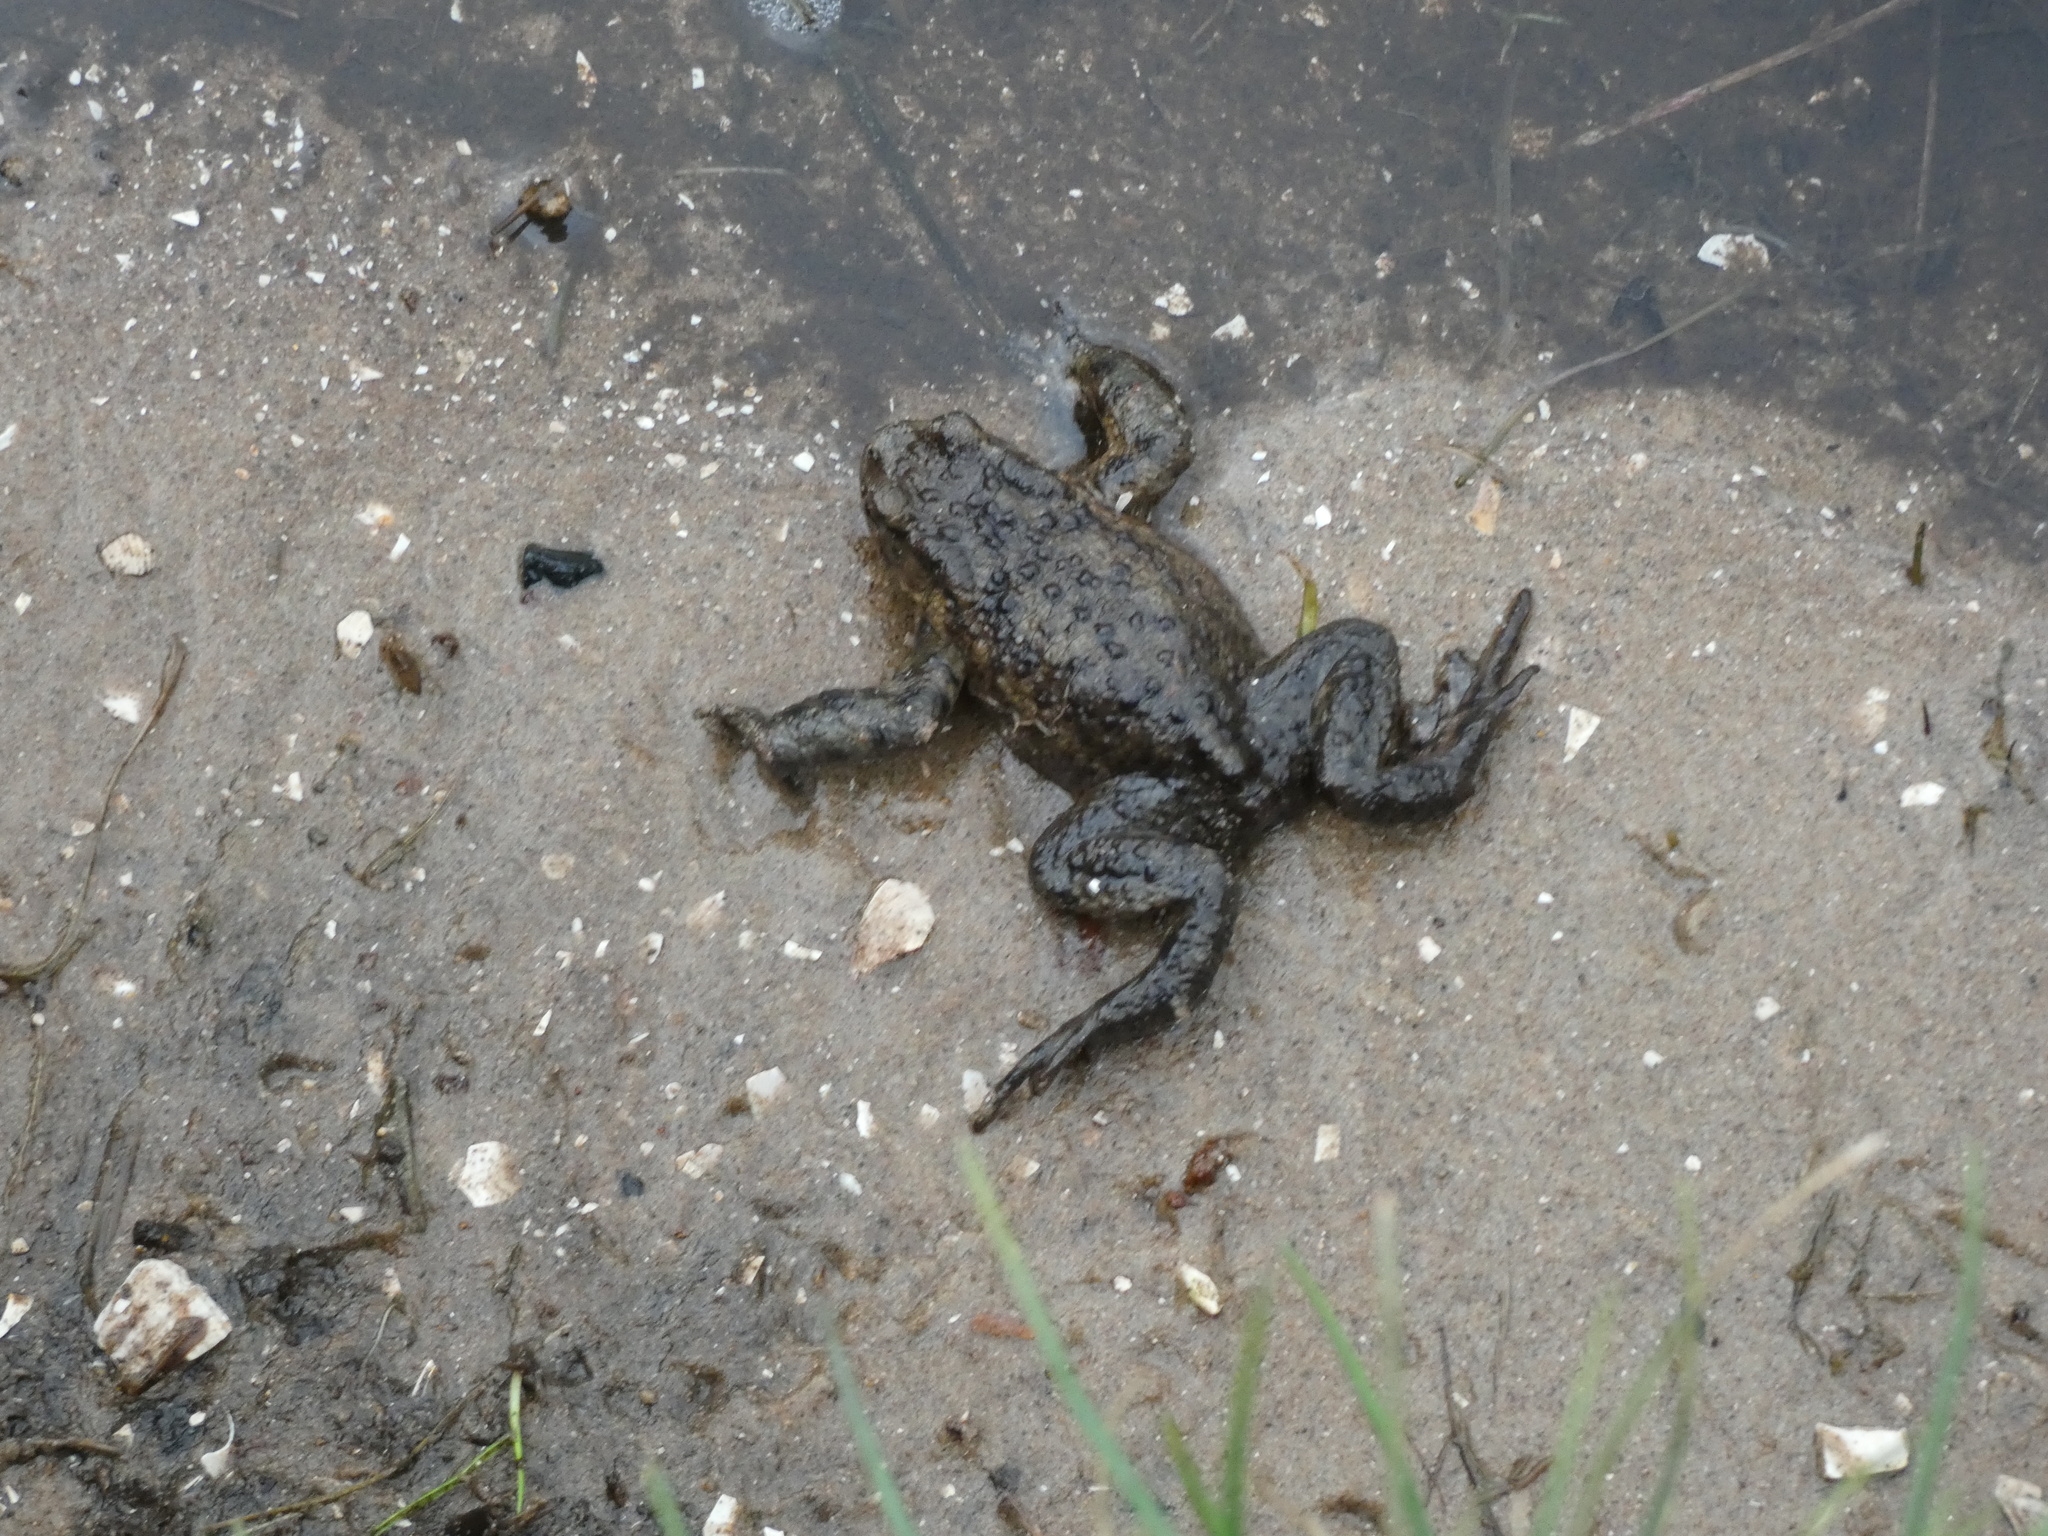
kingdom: Animalia
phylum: Chordata
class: Amphibia
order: Anura
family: Bufonidae
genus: Bufo
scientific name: Bufo bufo
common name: Common toad
